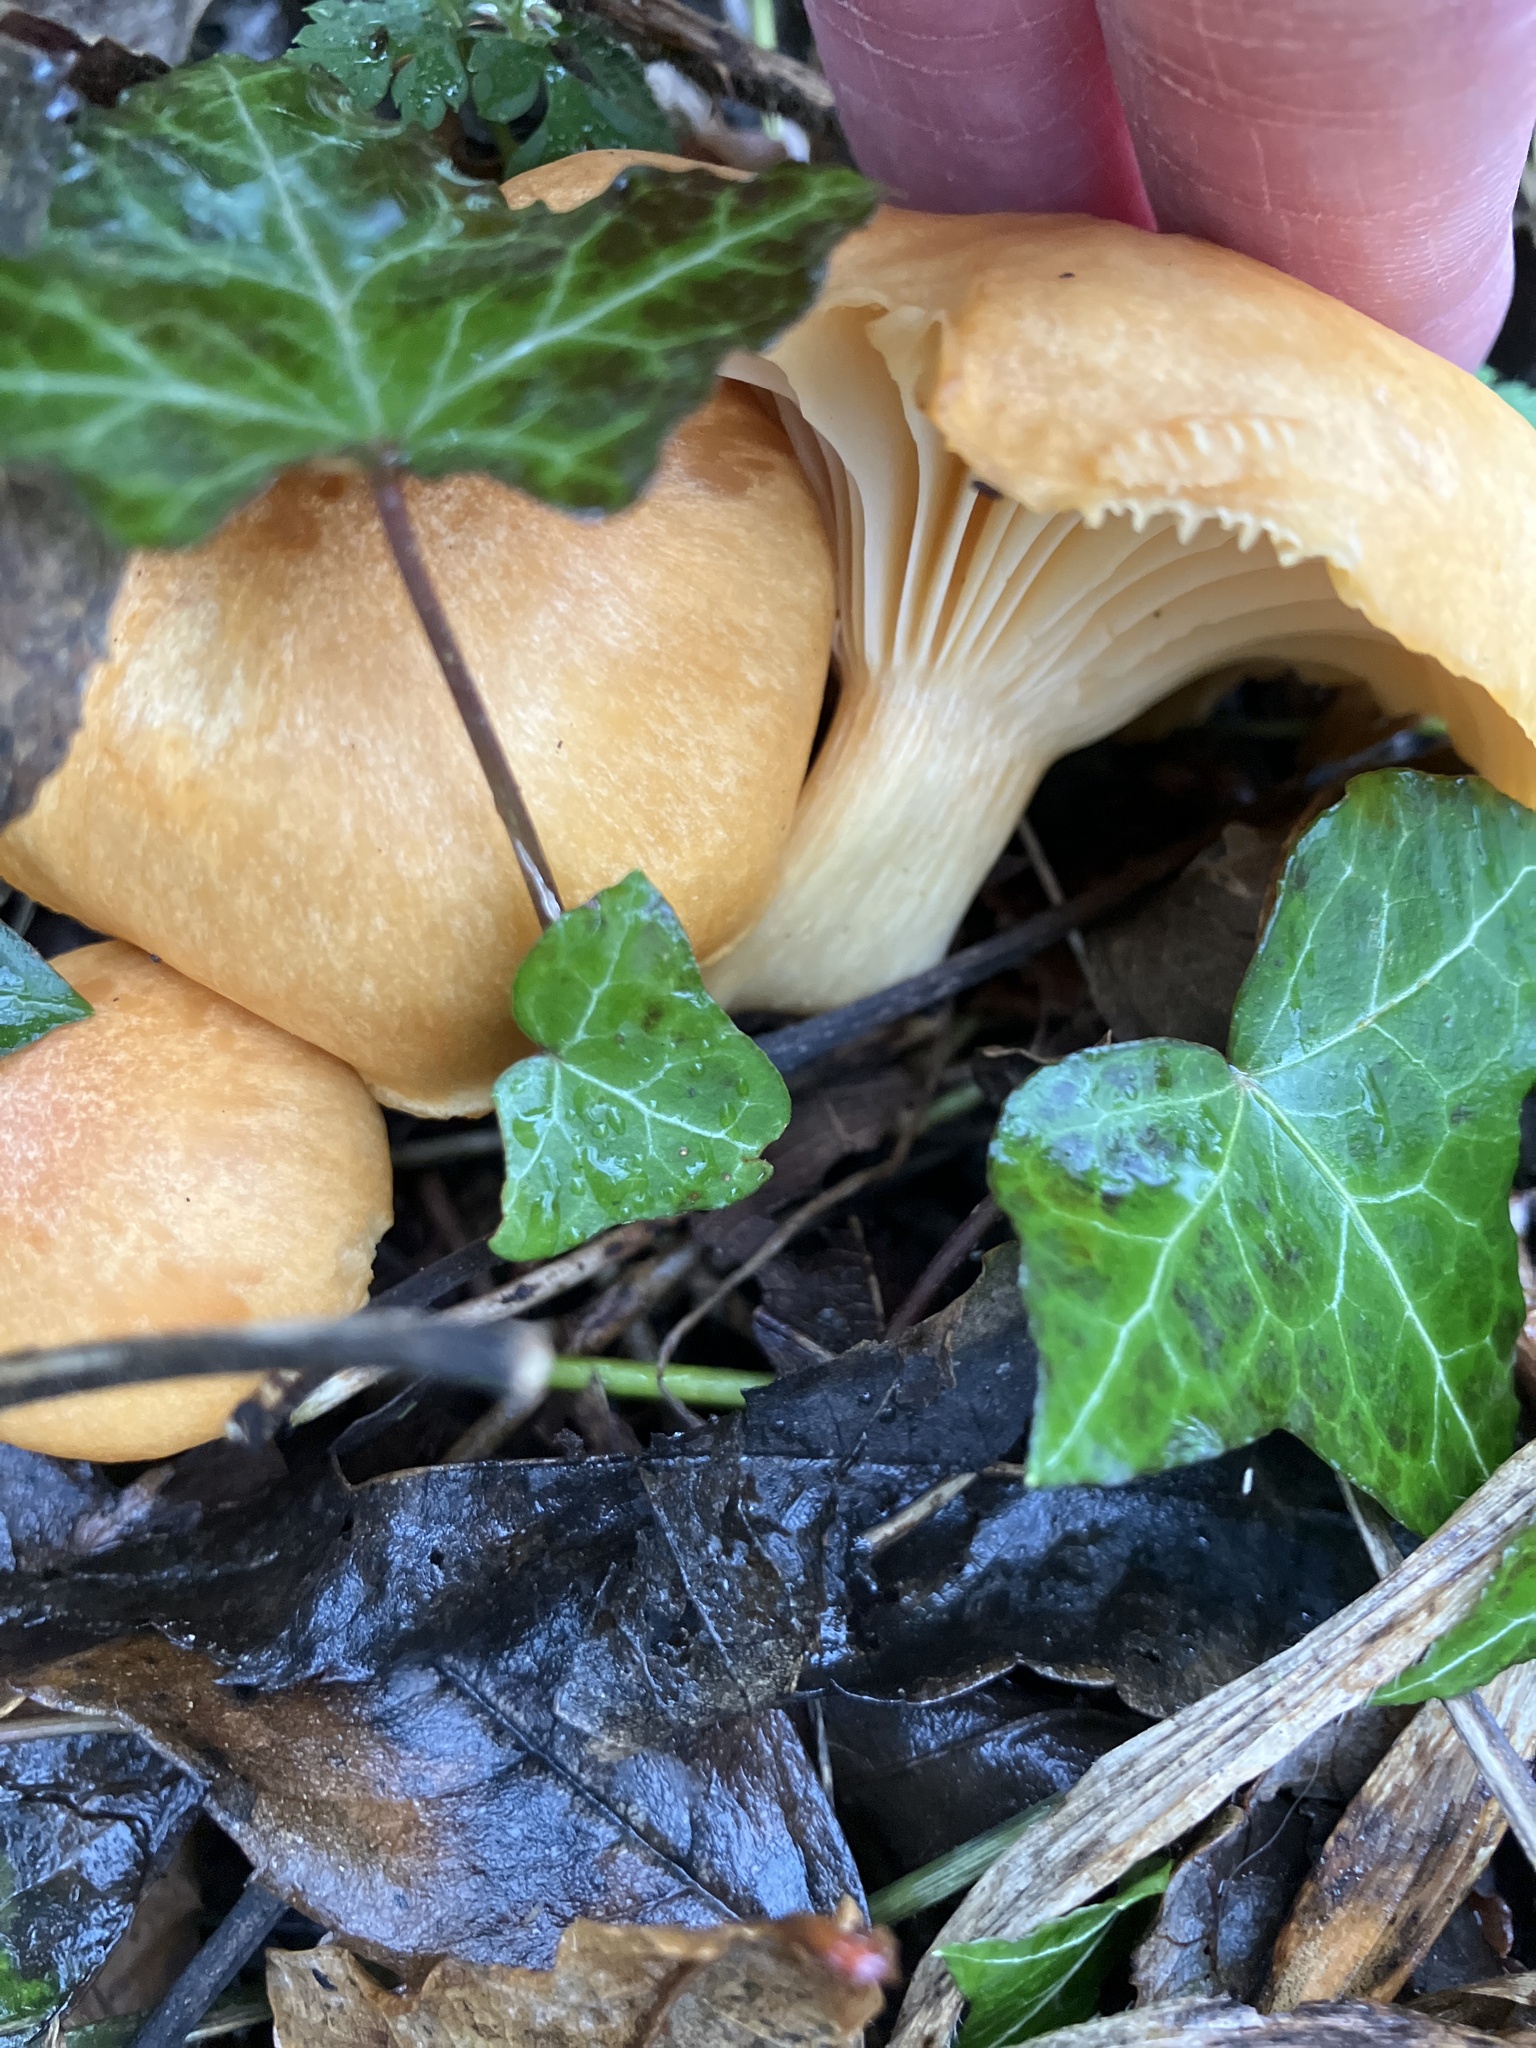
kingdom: Fungi
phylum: Basidiomycota
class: Agaricomycetes
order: Agaricales
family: Hygrophoraceae
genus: Cuphophyllus
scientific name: Cuphophyllus pratensis
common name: Meadow waxcap
